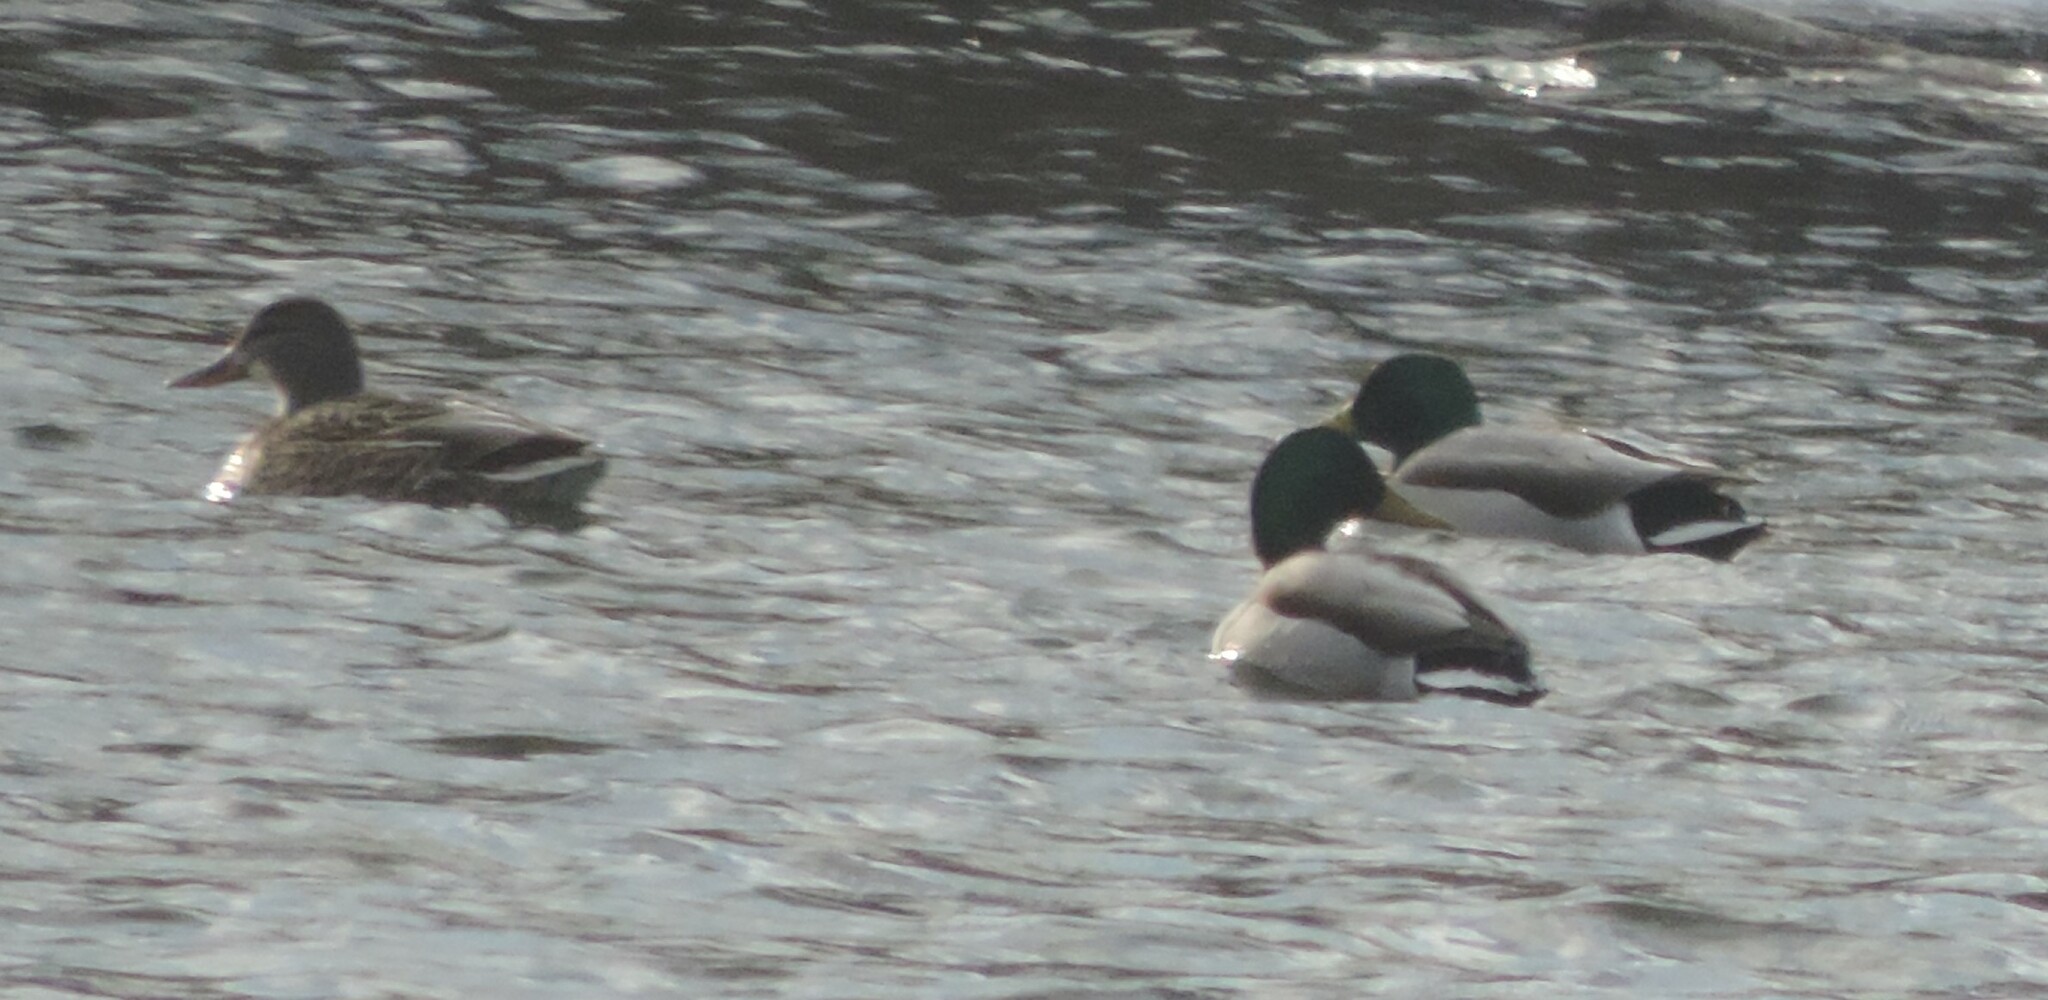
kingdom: Animalia
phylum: Chordata
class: Aves
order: Anseriformes
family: Anatidae
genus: Anas
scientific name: Anas platyrhynchos
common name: Mallard
